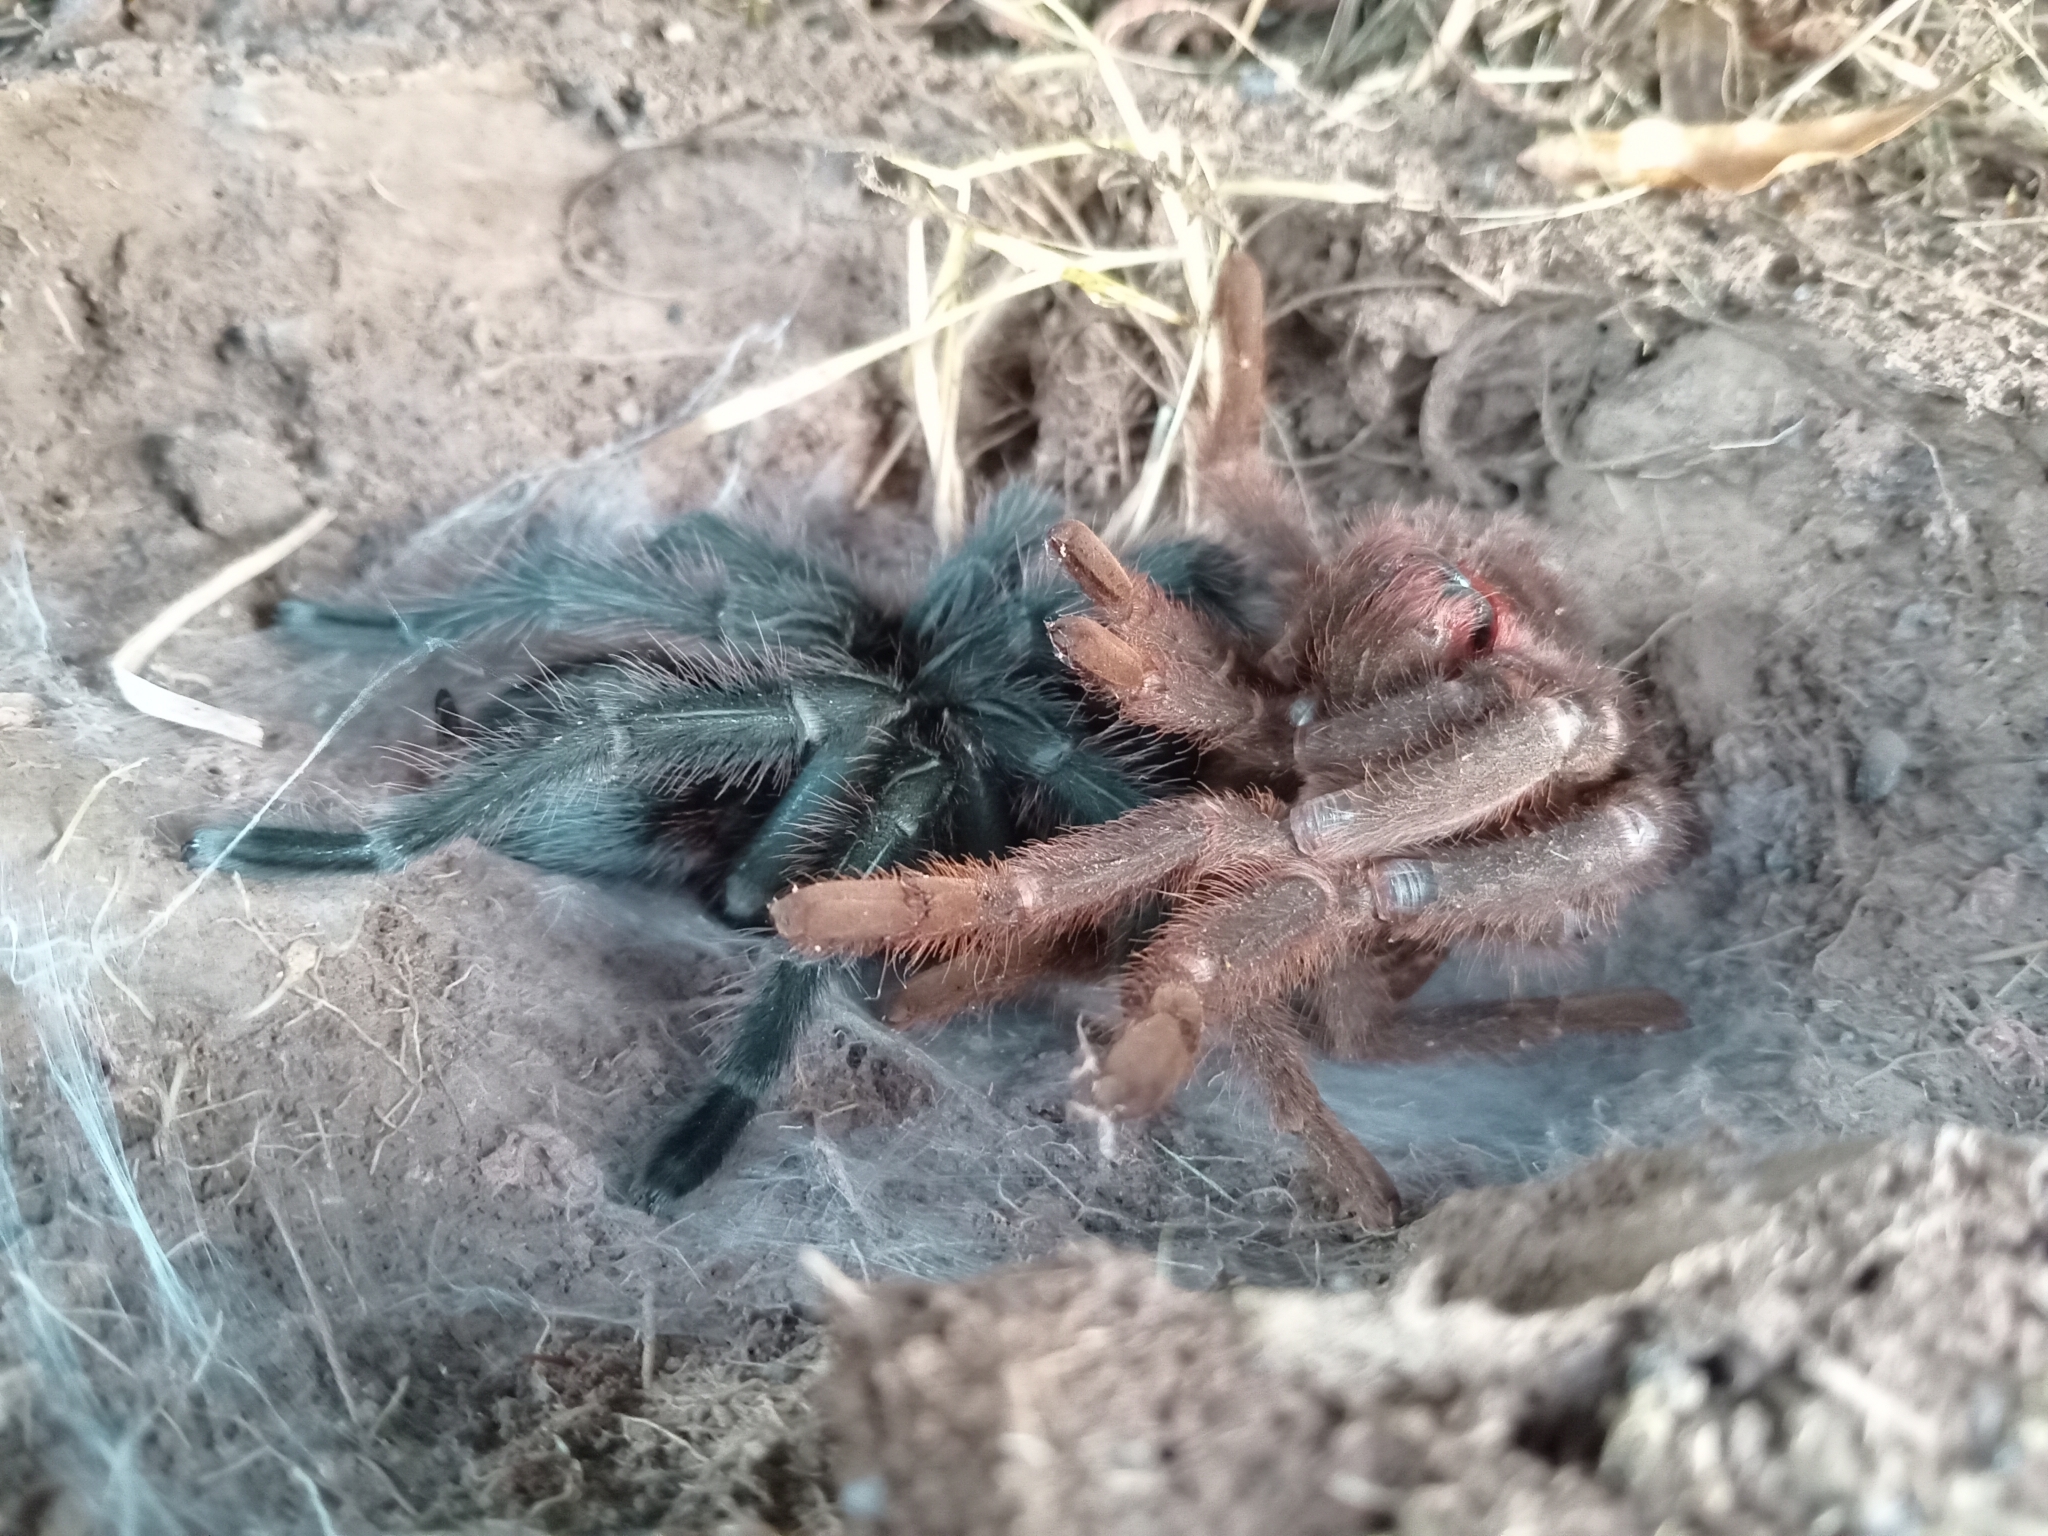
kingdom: Animalia
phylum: Arthropoda
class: Arachnida
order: Araneae
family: Theraphosidae
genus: Grammostola
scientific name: Grammostola iheringi
